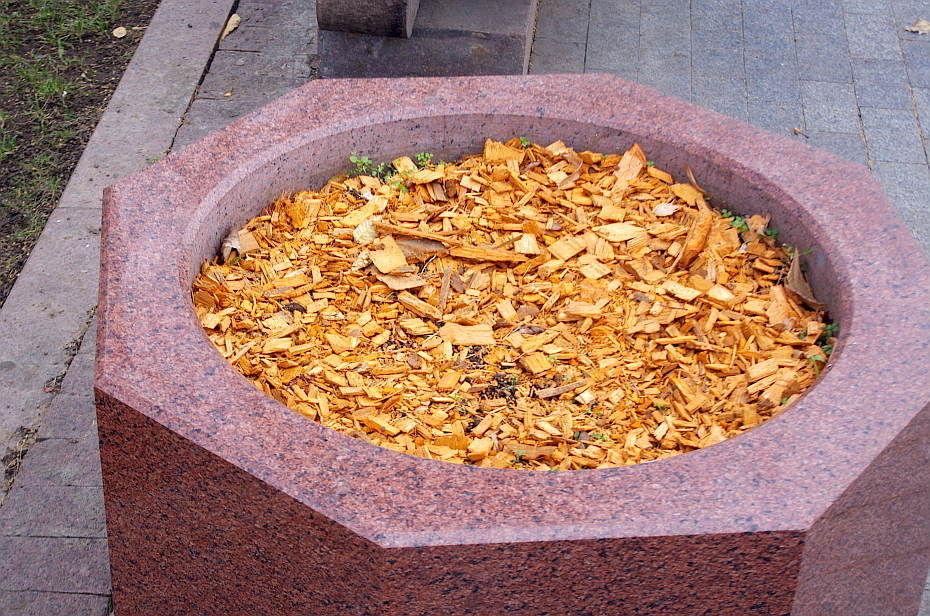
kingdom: Plantae
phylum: Tracheophyta
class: Magnoliopsida
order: Caryophyllales
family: Caryophyllaceae
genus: Stellaria
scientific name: Stellaria media
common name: Common chickweed
